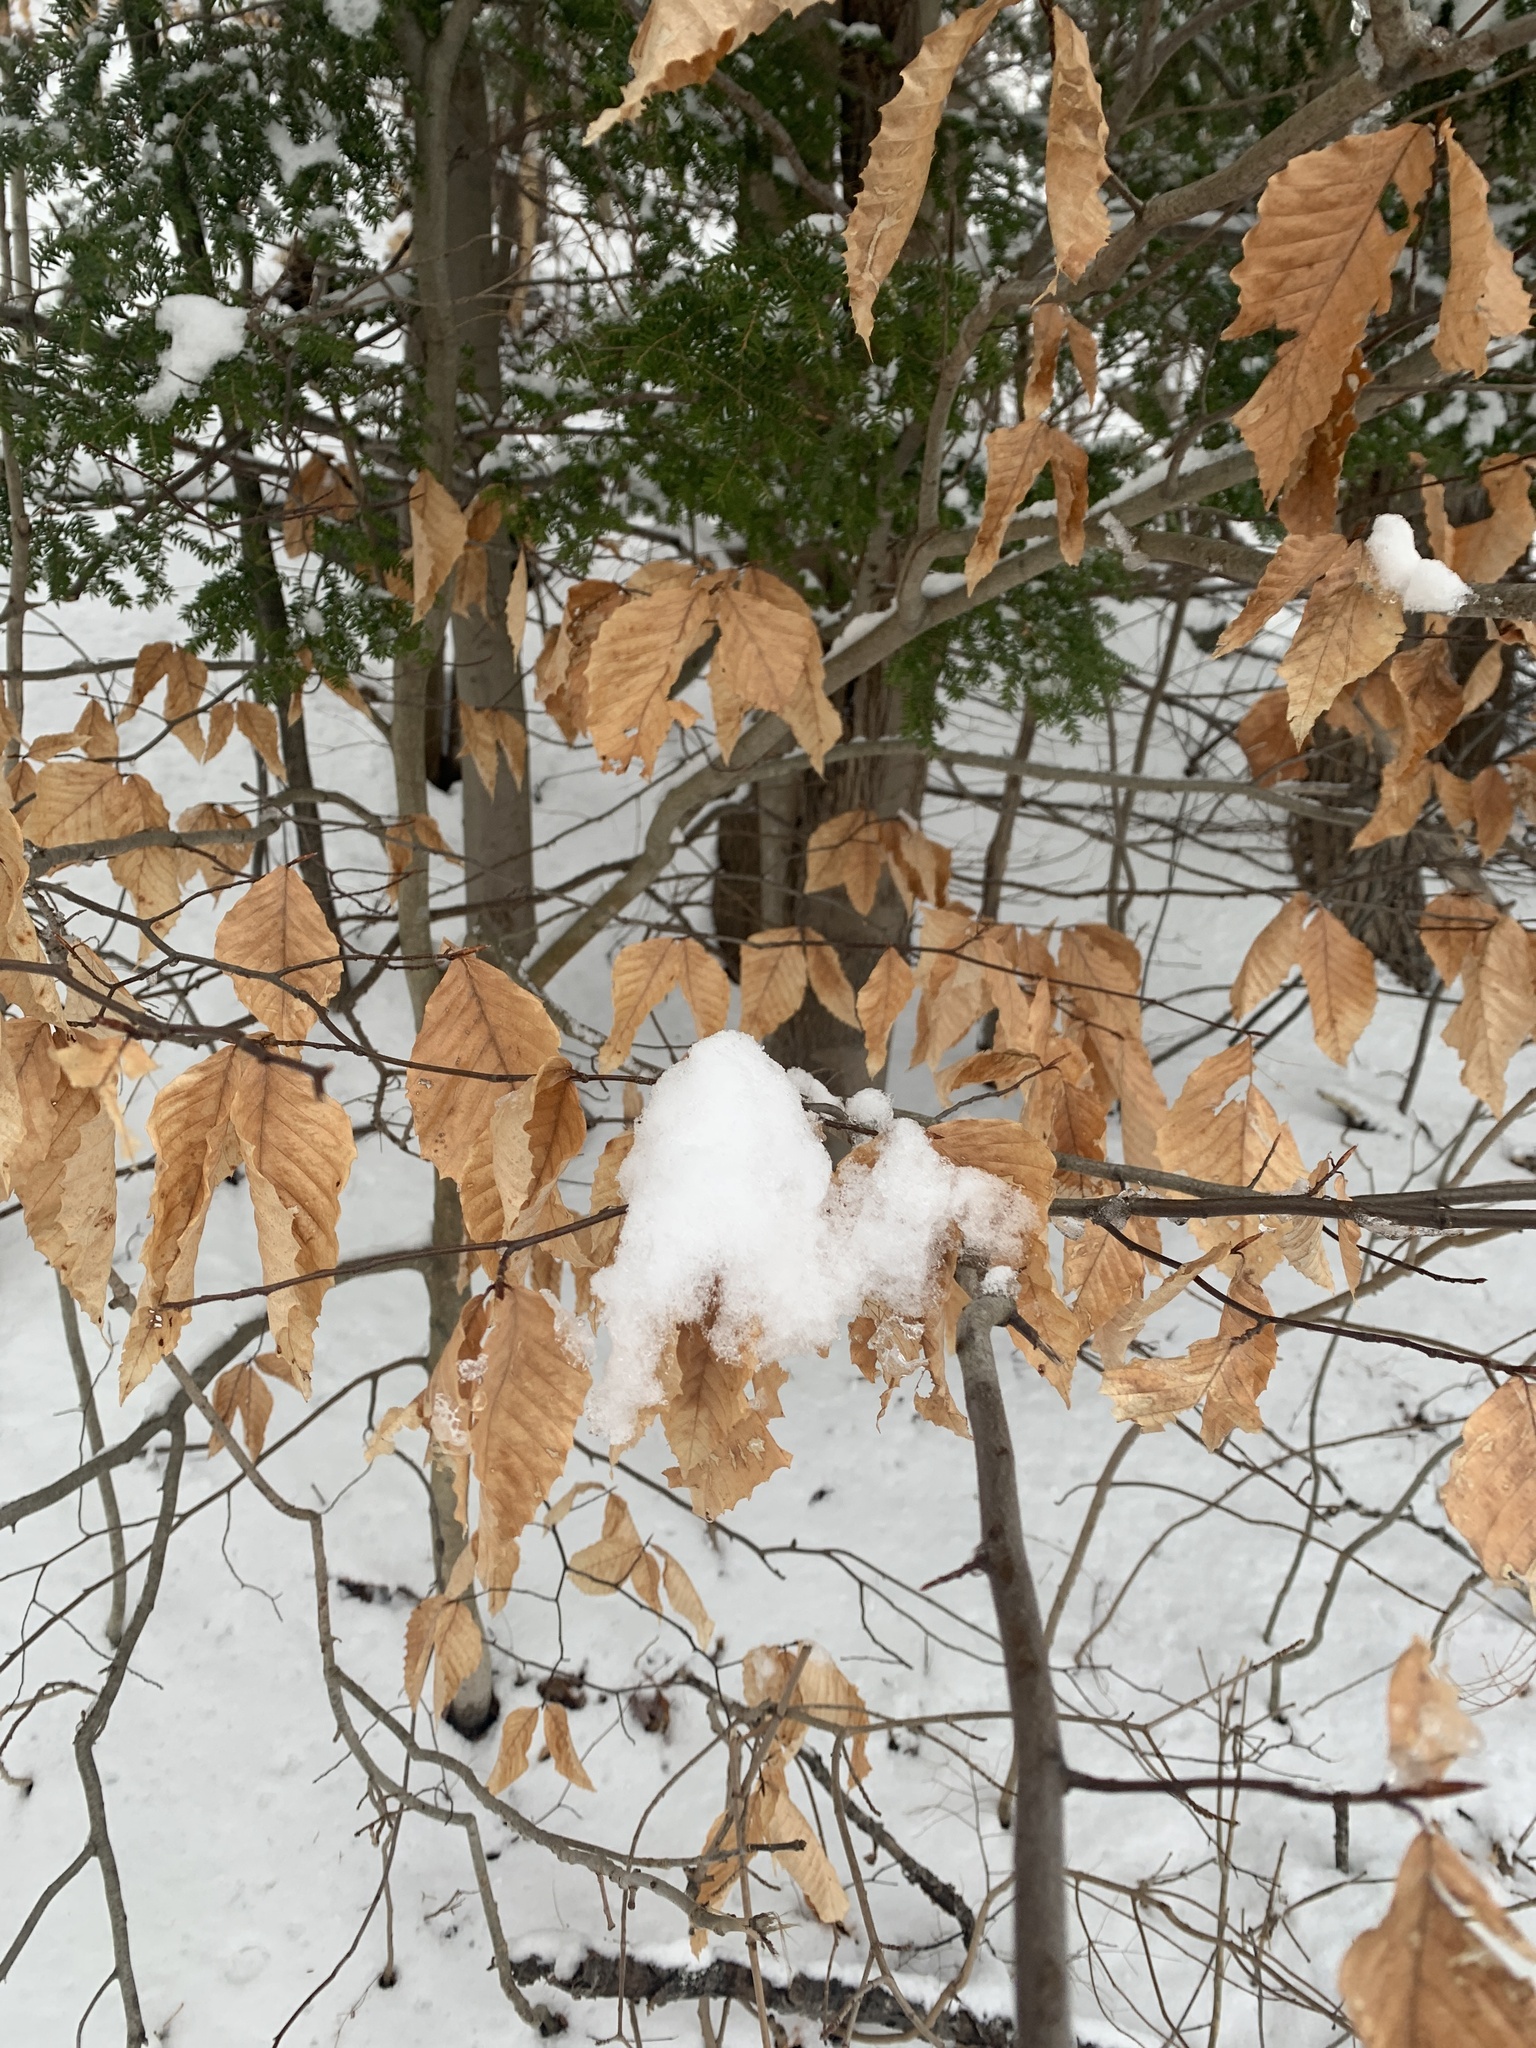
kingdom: Plantae
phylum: Tracheophyta
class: Magnoliopsida
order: Fagales
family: Fagaceae
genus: Fagus
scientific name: Fagus grandifolia
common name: American beech
